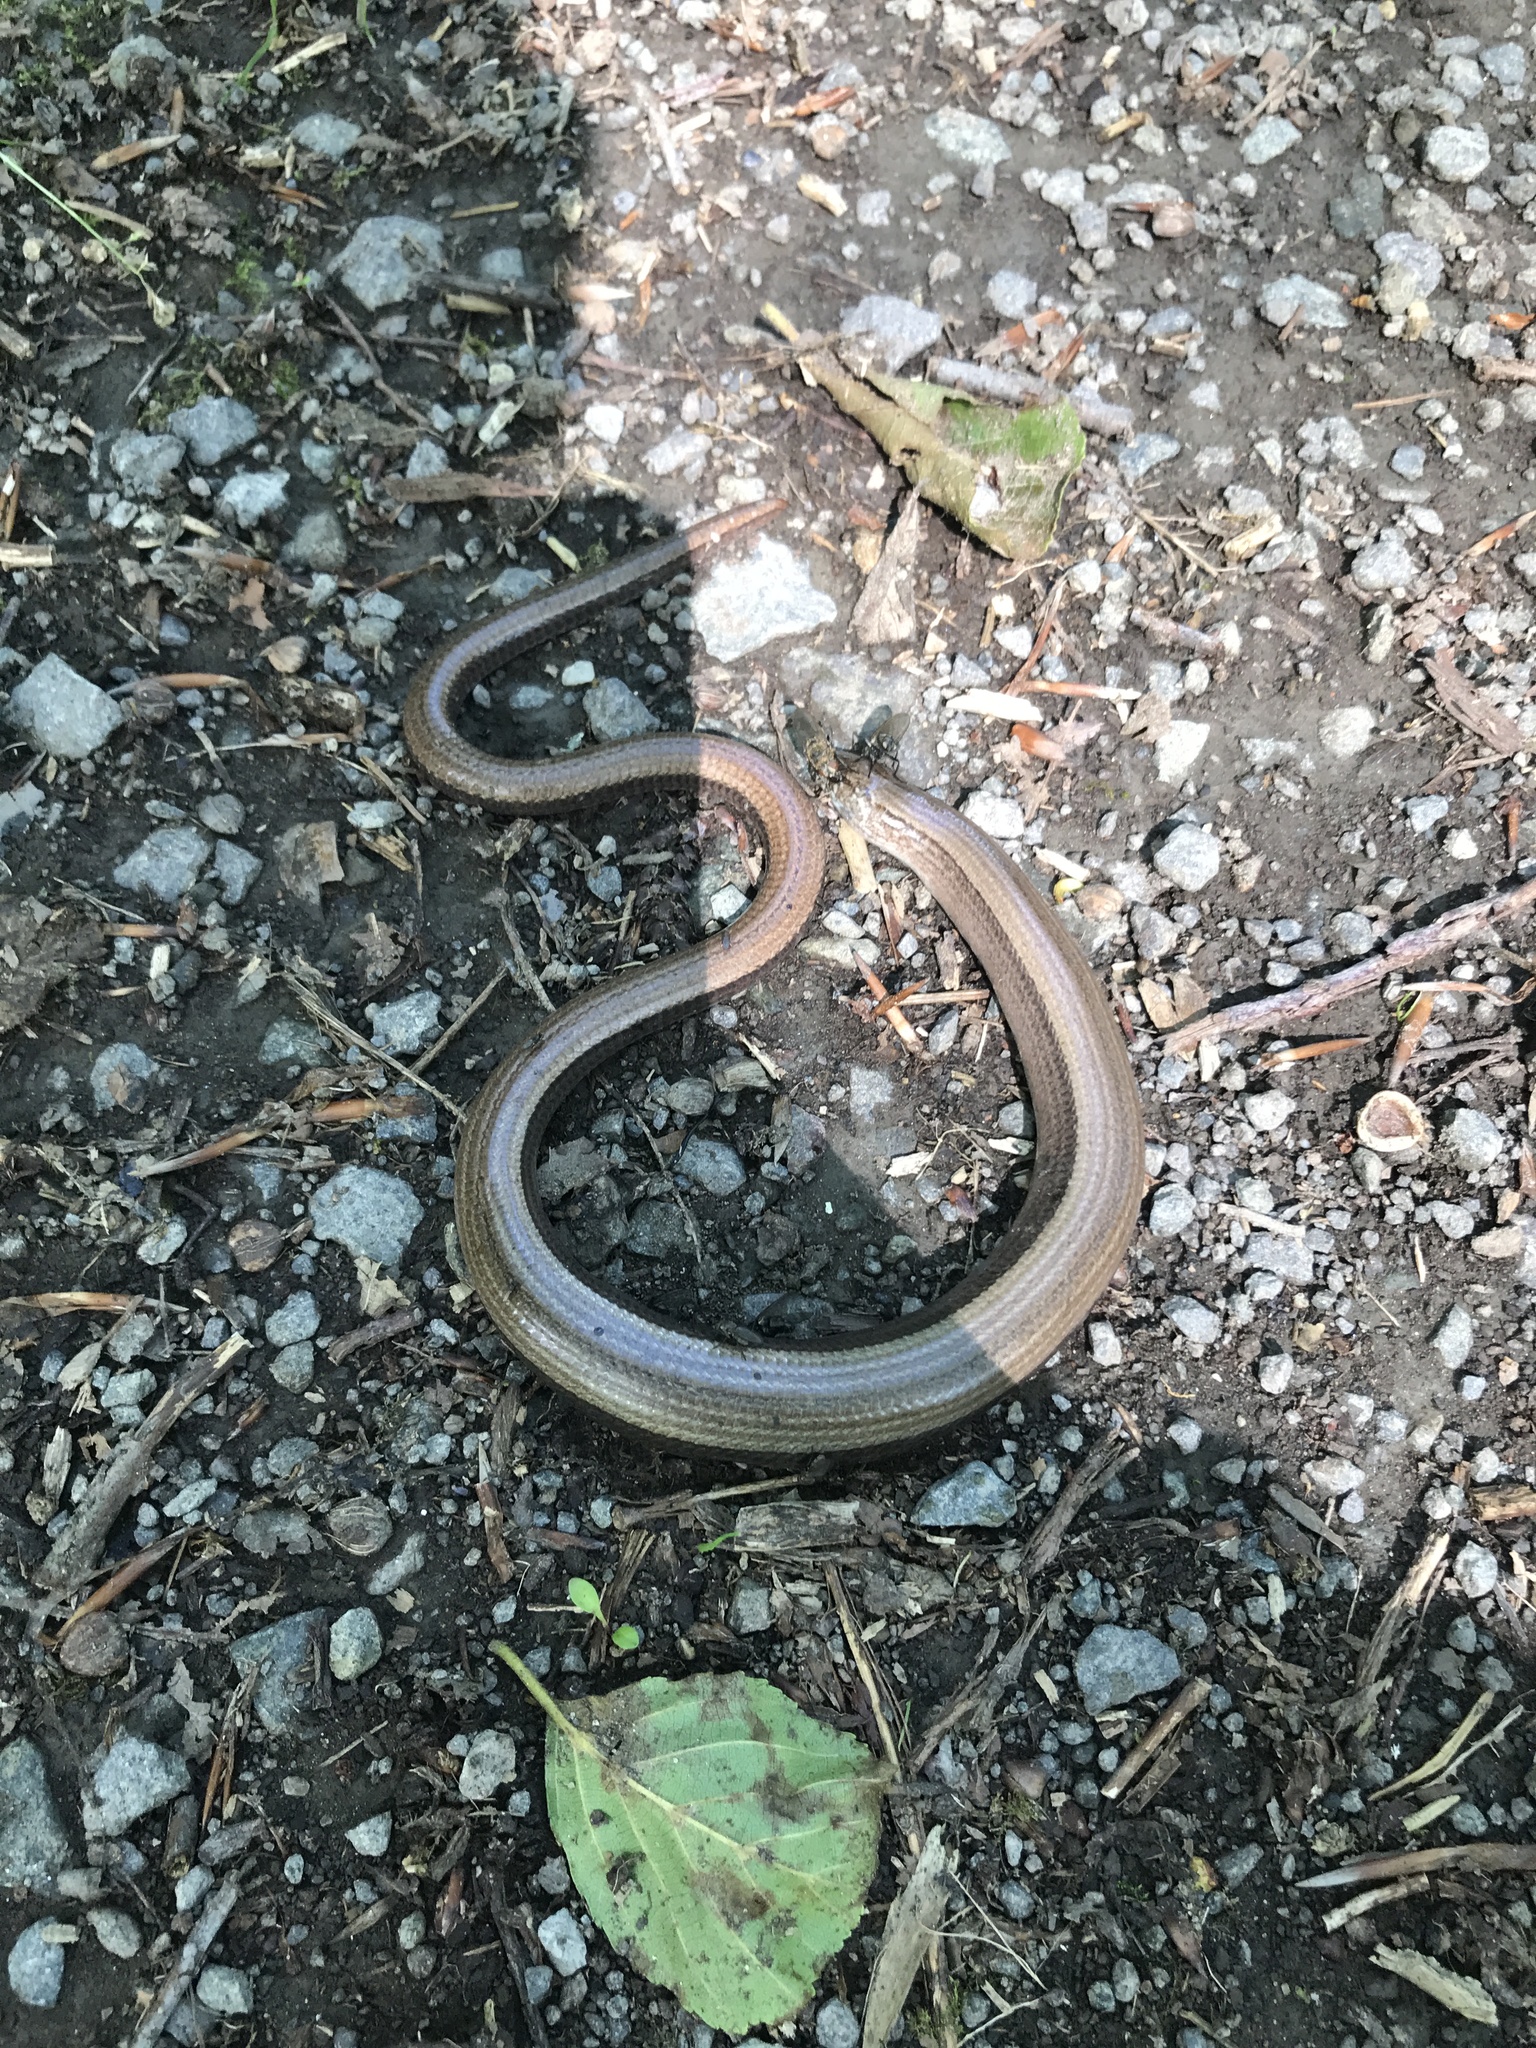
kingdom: Animalia
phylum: Chordata
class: Squamata
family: Anguidae
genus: Anguis
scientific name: Anguis fragilis
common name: Slow worm
